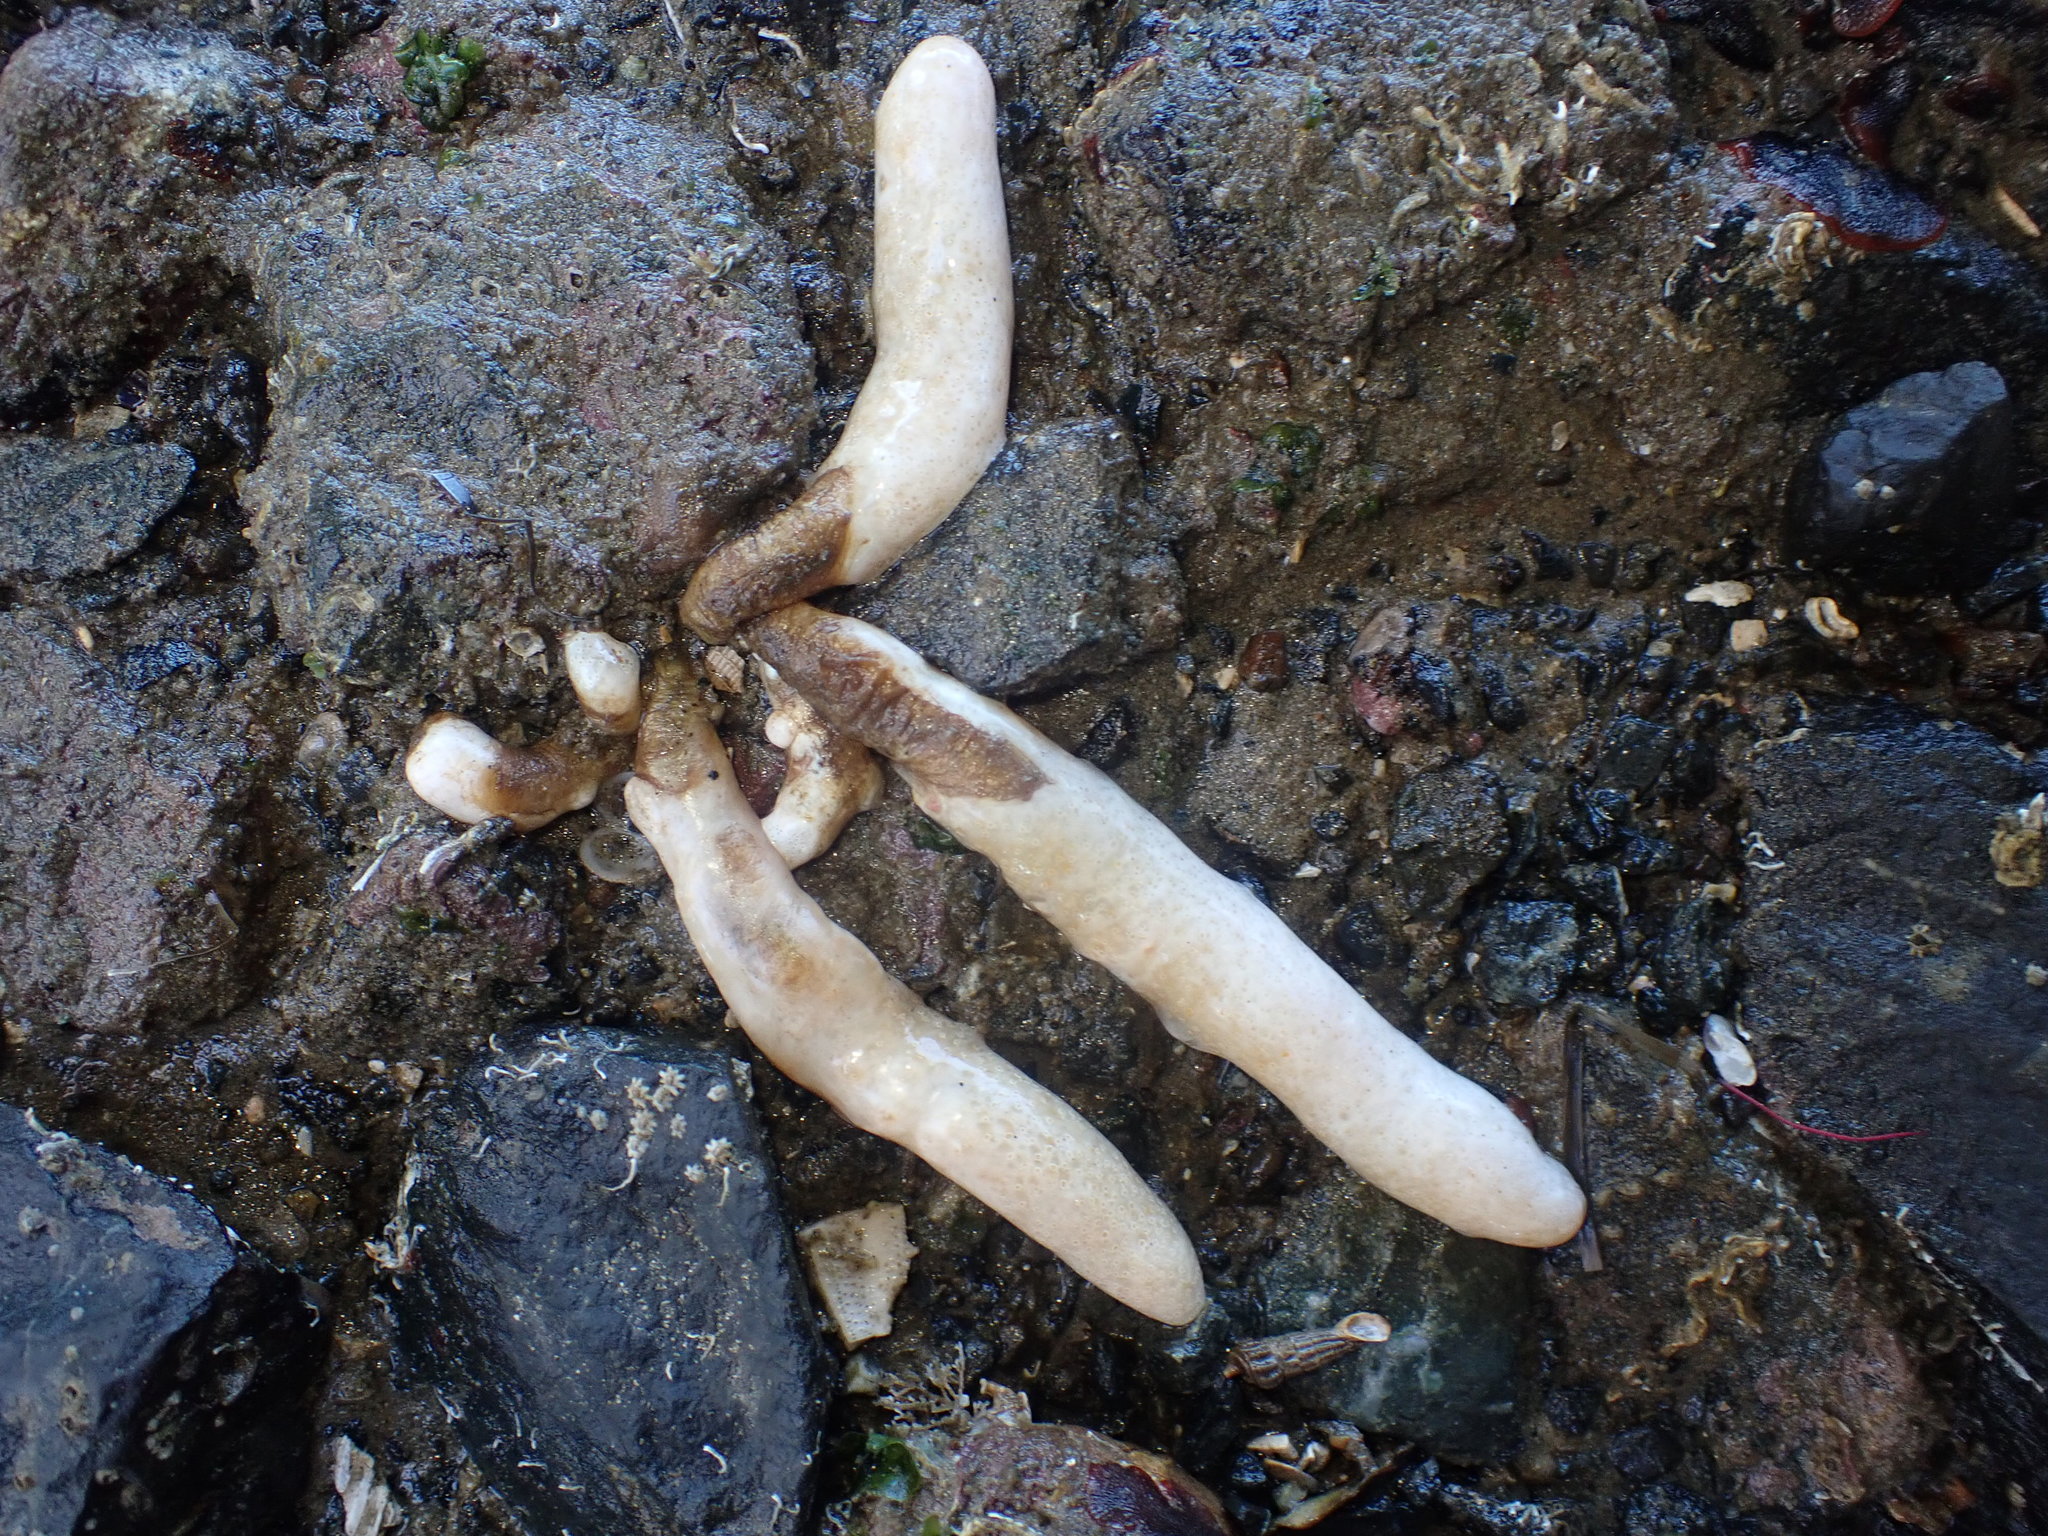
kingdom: Animalia
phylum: Chordata
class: Ascidiacea
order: Aplousobranchia
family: Polycitoridae
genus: Eudistoma
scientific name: Eudistoma elongatum
